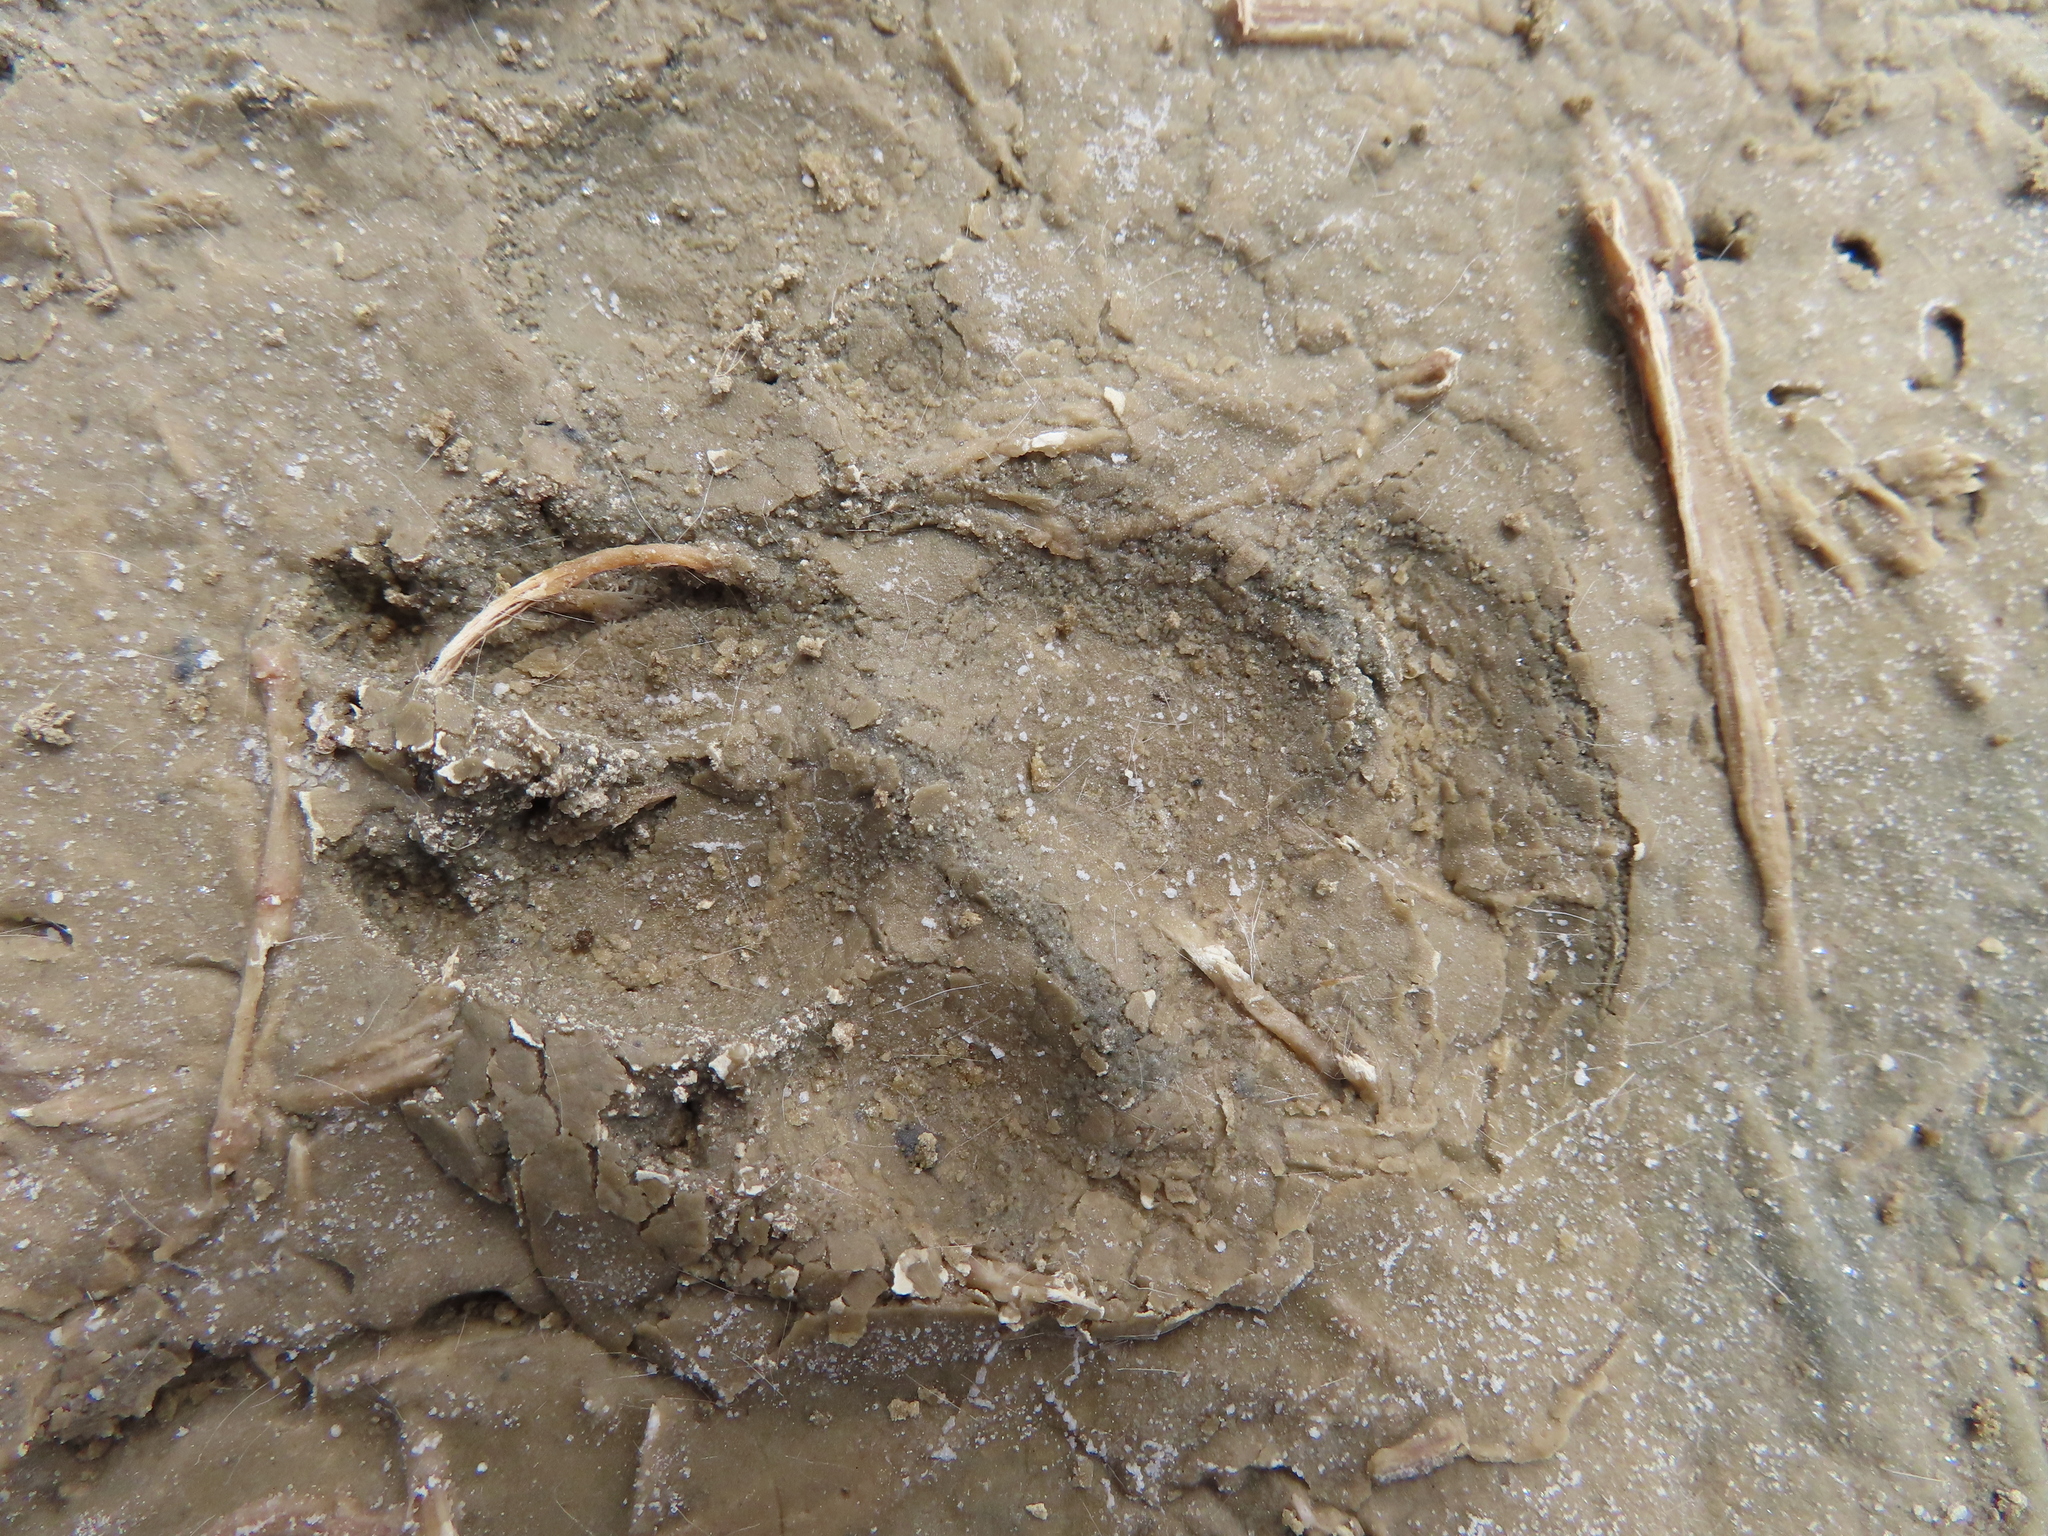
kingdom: Animalia
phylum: Chordata
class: Mammalia
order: Rodentia
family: Hystricidae
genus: Hystrix
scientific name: Hystrix africaeaustralis
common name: Cape porcupine
